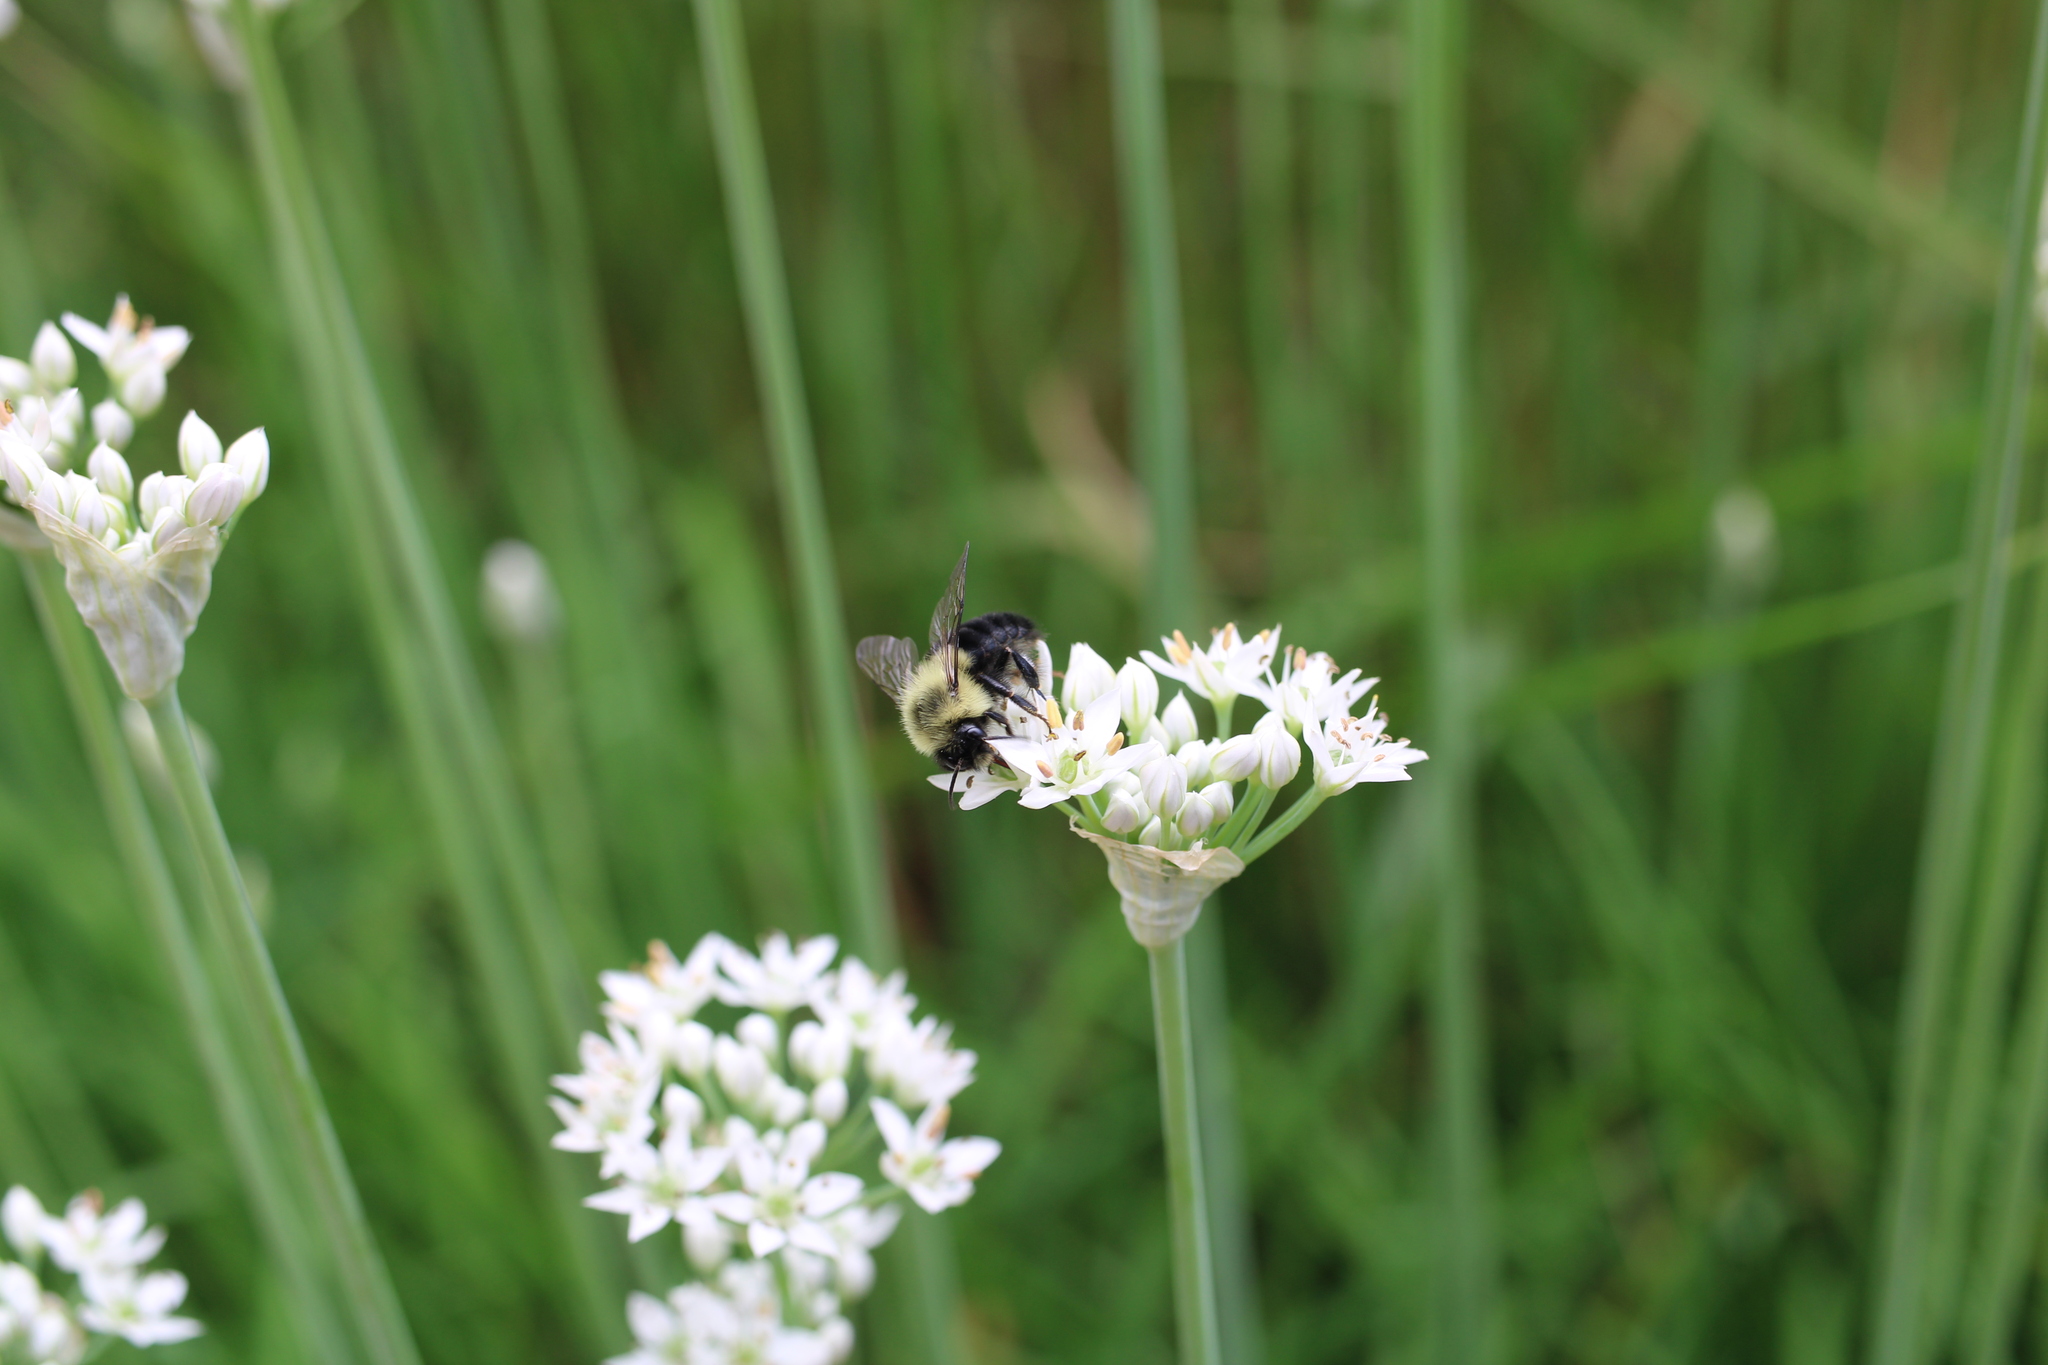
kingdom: Animalia
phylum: Arthropoda
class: Insecta
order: Hymenoptera
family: Apidae
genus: Bombus
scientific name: Bombus impatiens
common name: Common eastern bumble bee
